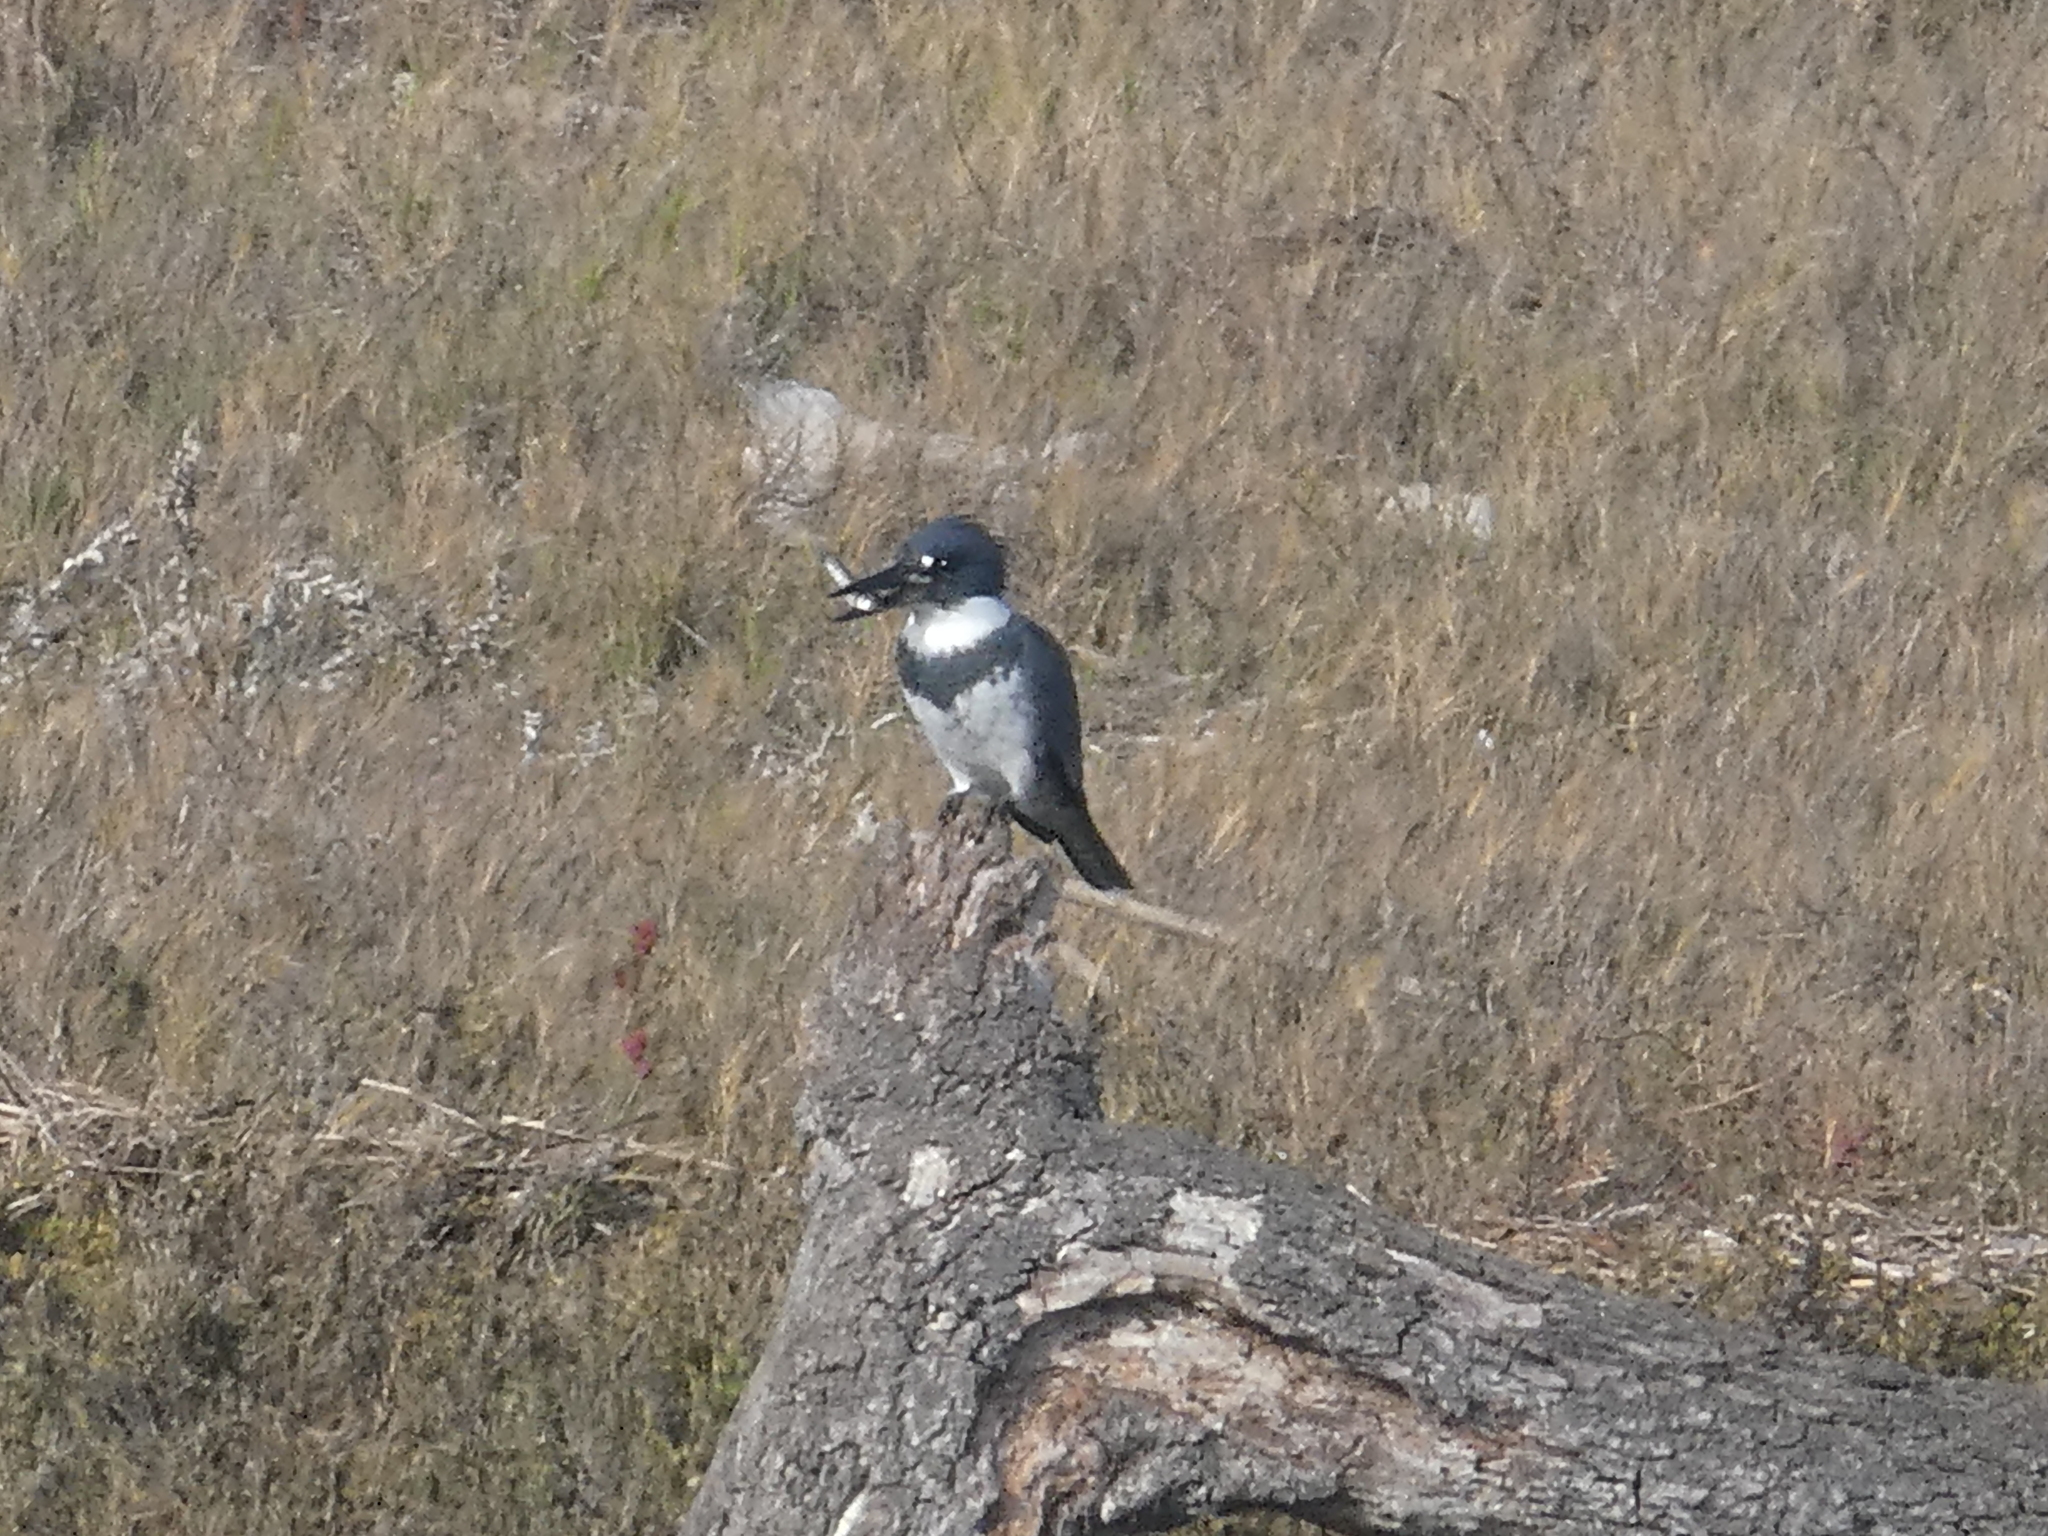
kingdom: Animalia
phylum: Chordata
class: Aves
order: Coraciiformes
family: Alcedinidae
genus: Megaceryle
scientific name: Megaceryle alcyon
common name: Belted kingfisher
